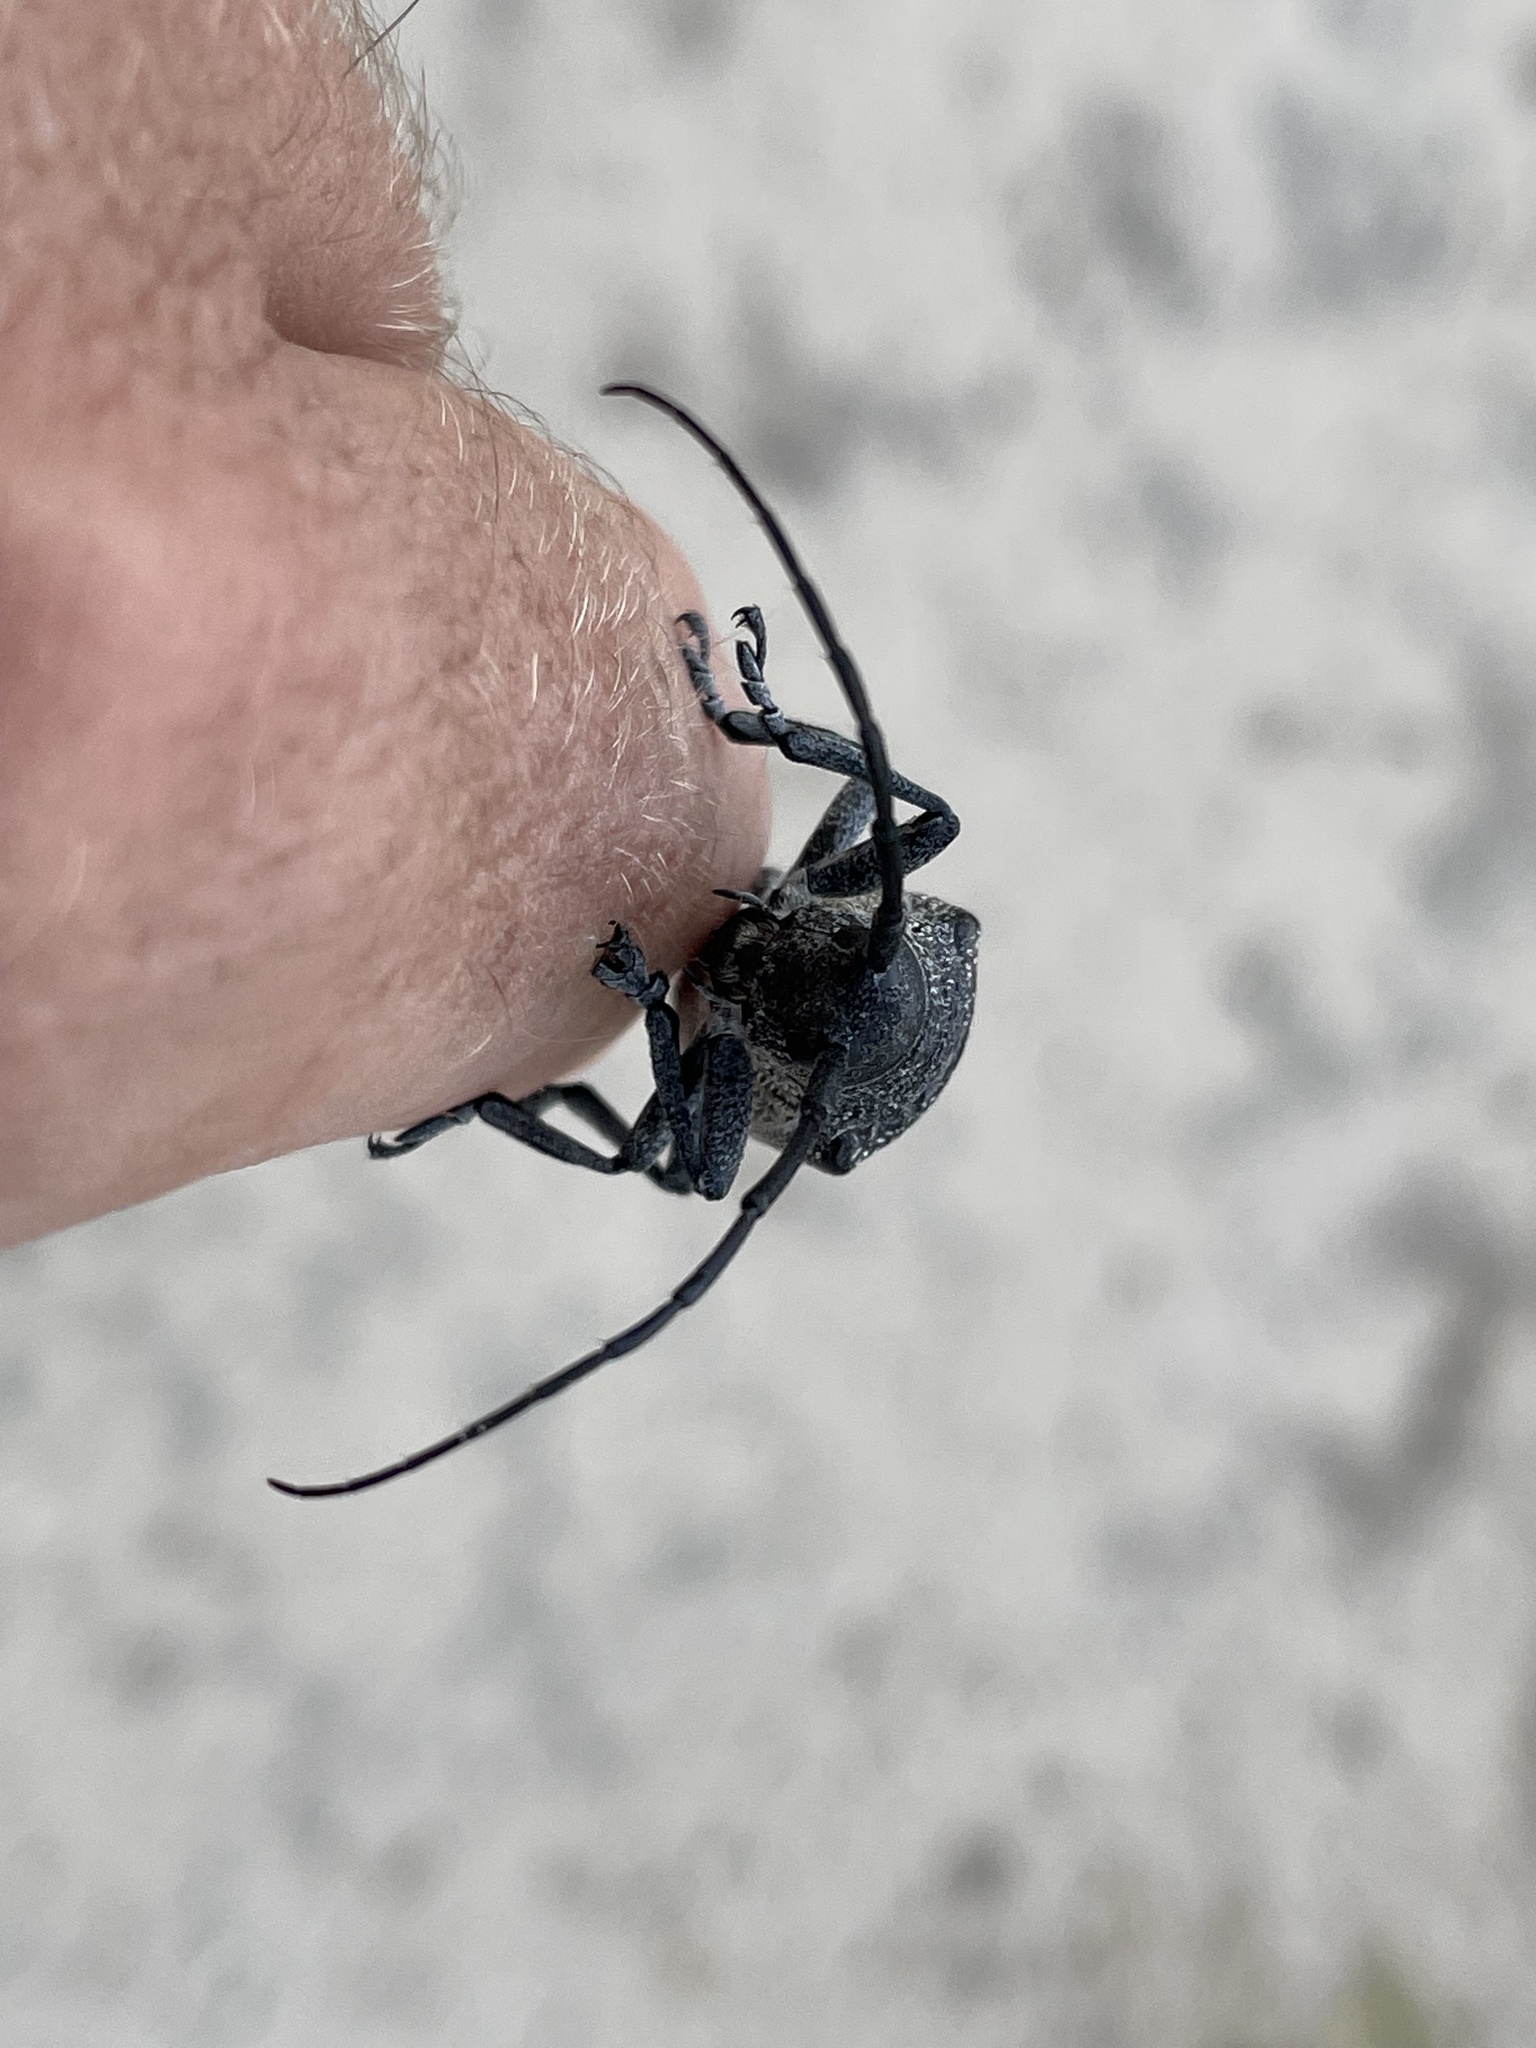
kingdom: Animalia
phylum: Arthropoda
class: Insecta
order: Coleoptera
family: Cerambycidae
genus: Pycnopsis
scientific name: Pycnopsis brachyptera
